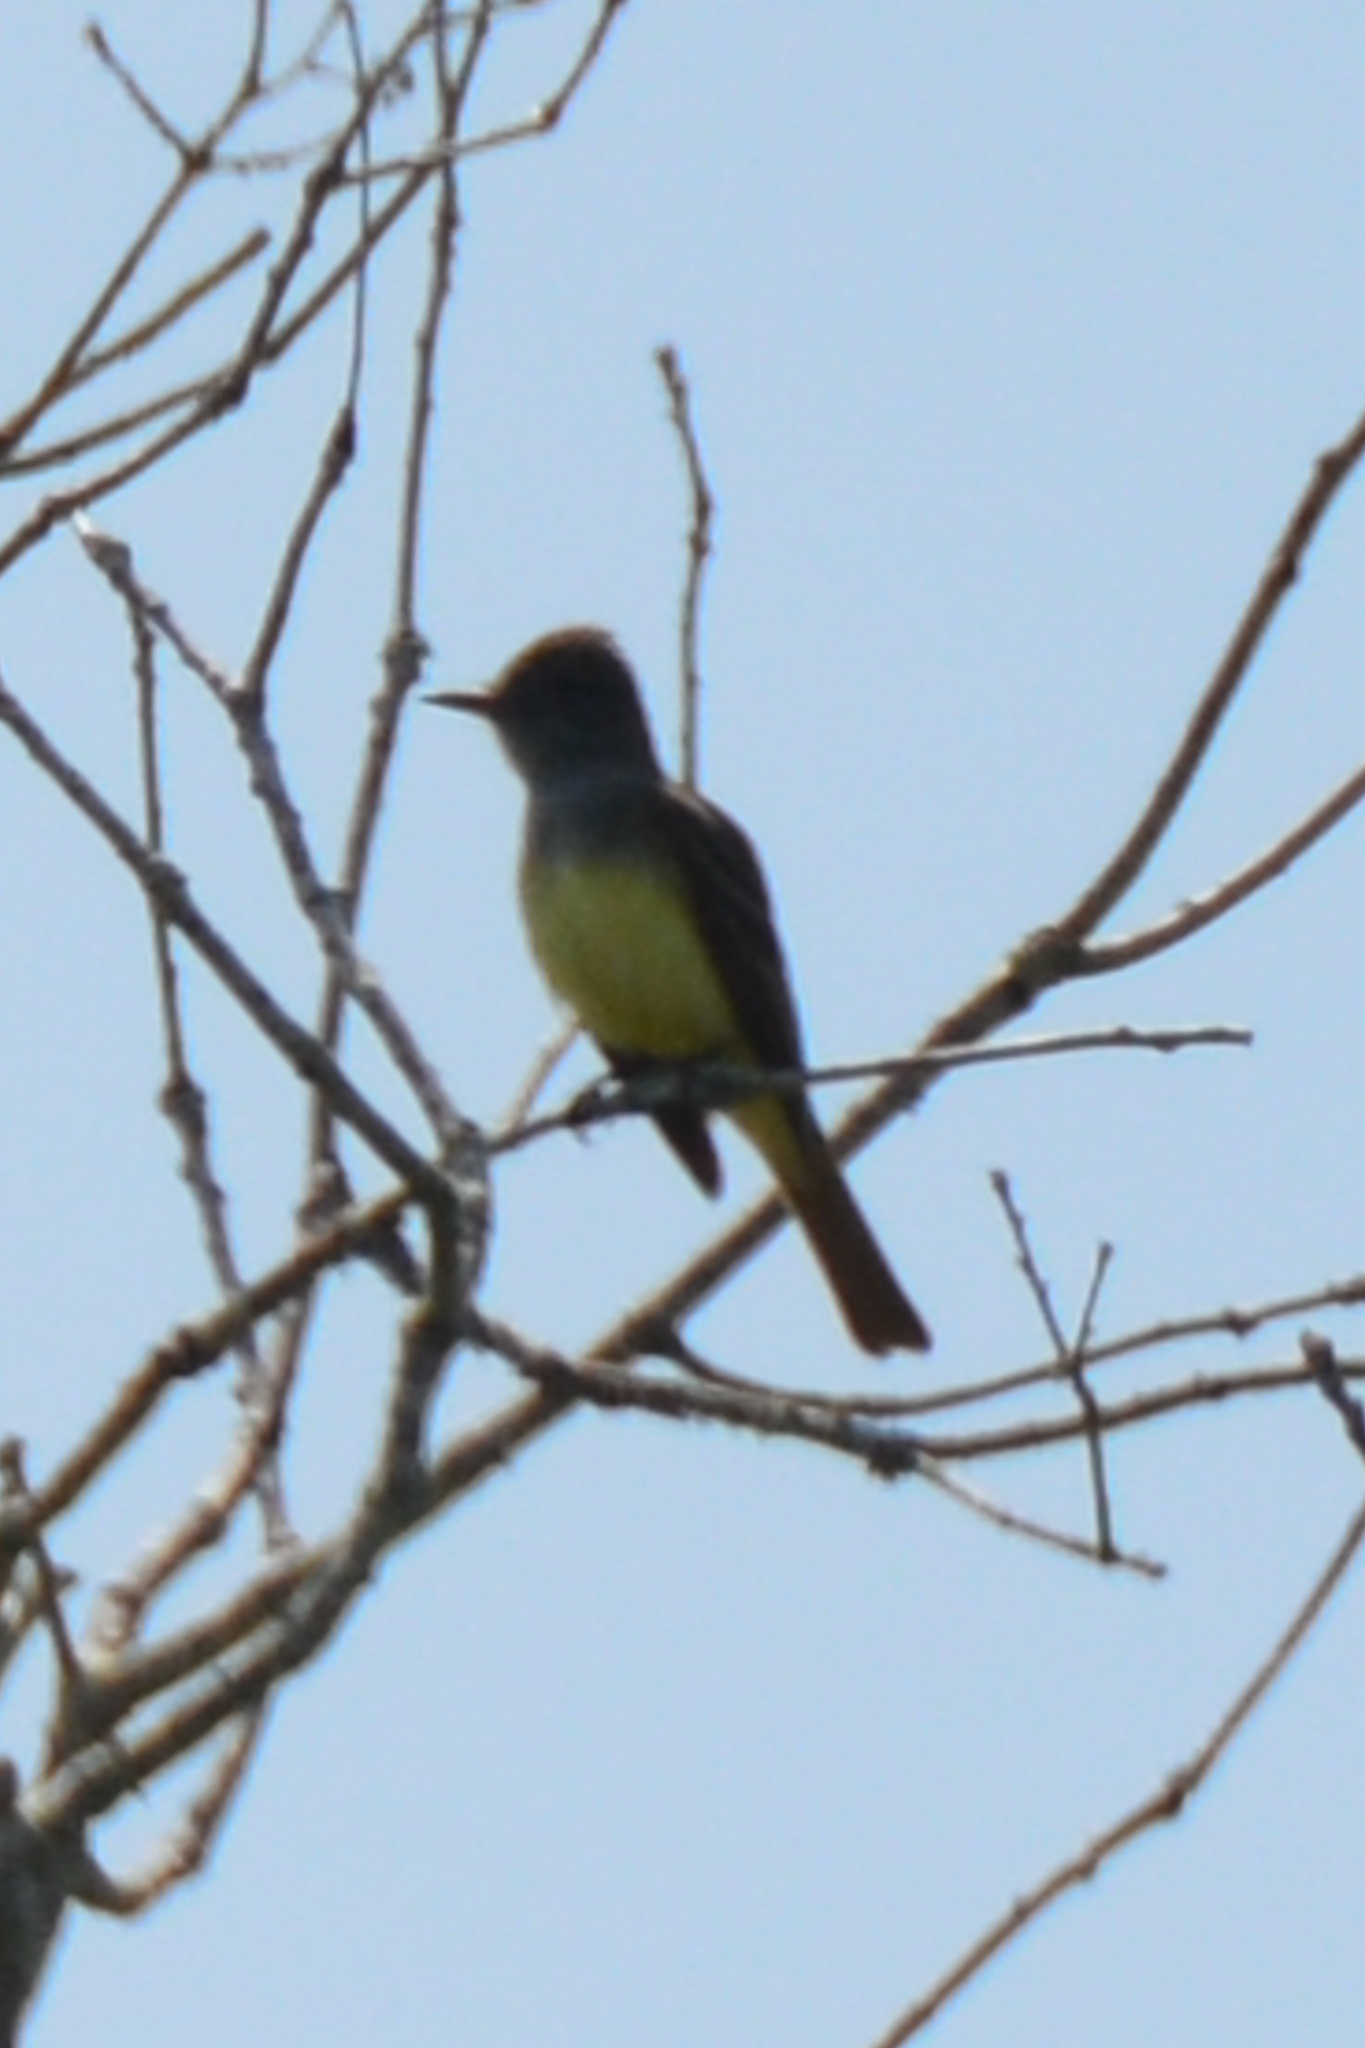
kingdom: Animalia
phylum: Chordata
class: Aves
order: Passeriformes
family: Tyrannidae
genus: Myiarchus
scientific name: Myiarchus crinitus
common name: Great crested flycatcher
